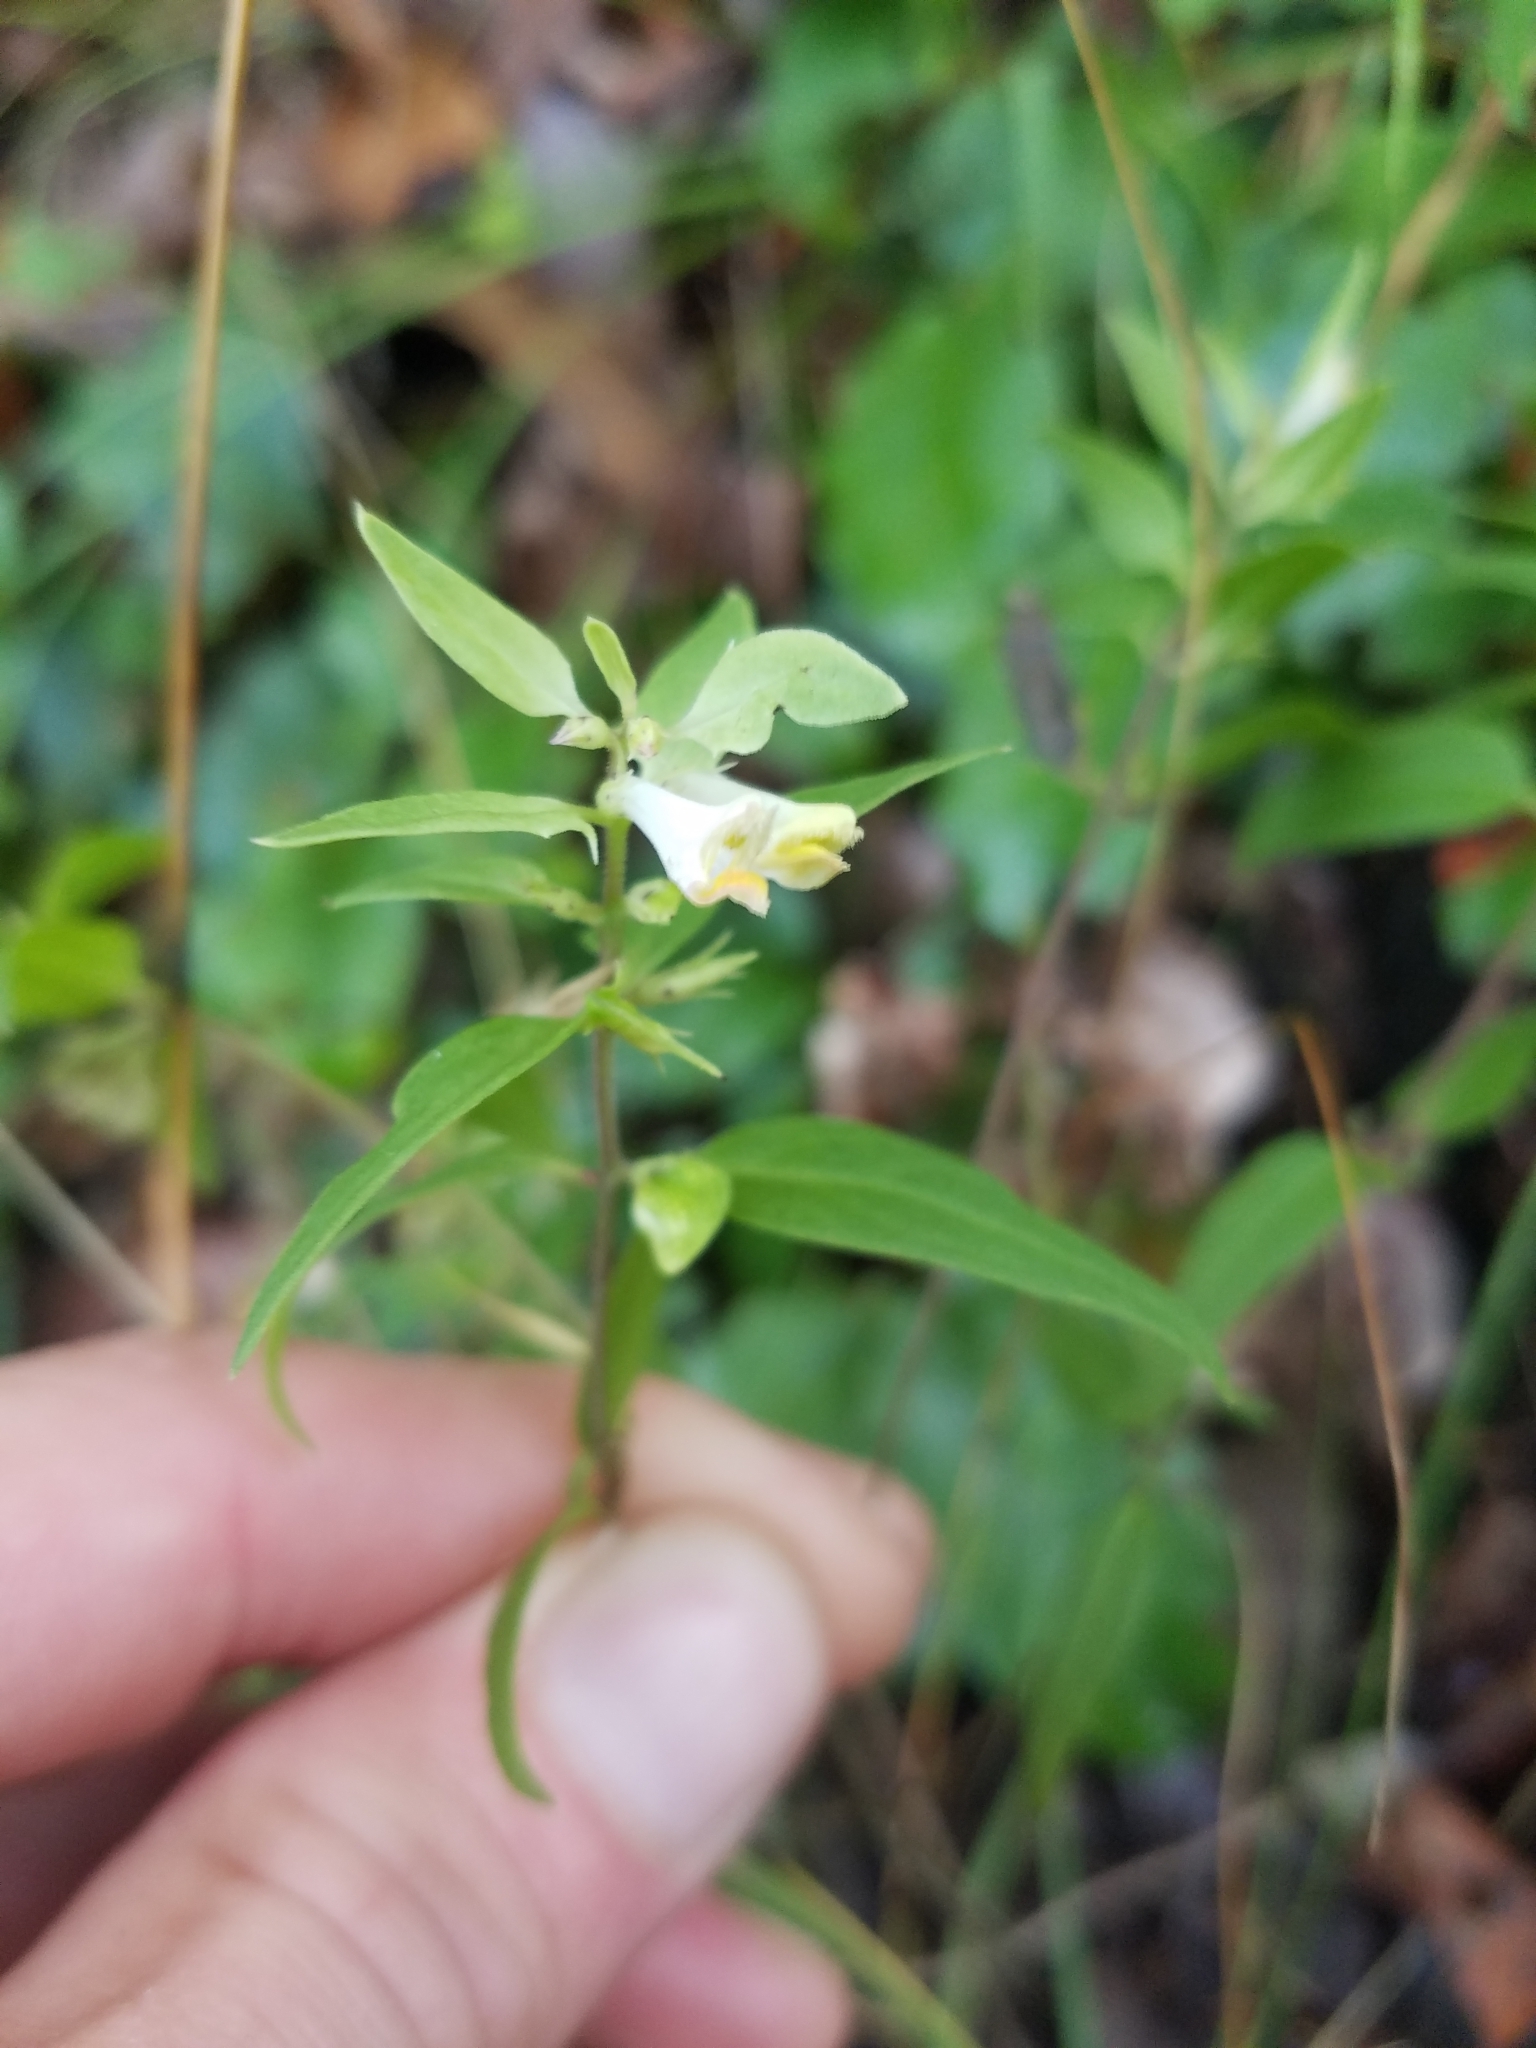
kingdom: Plantae
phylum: Tracheophyta
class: Magnoliopsida
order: Lamiales
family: Orobanchaceae
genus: Melampyrum
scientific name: Melampyrum lineare
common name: American cow-wheat
